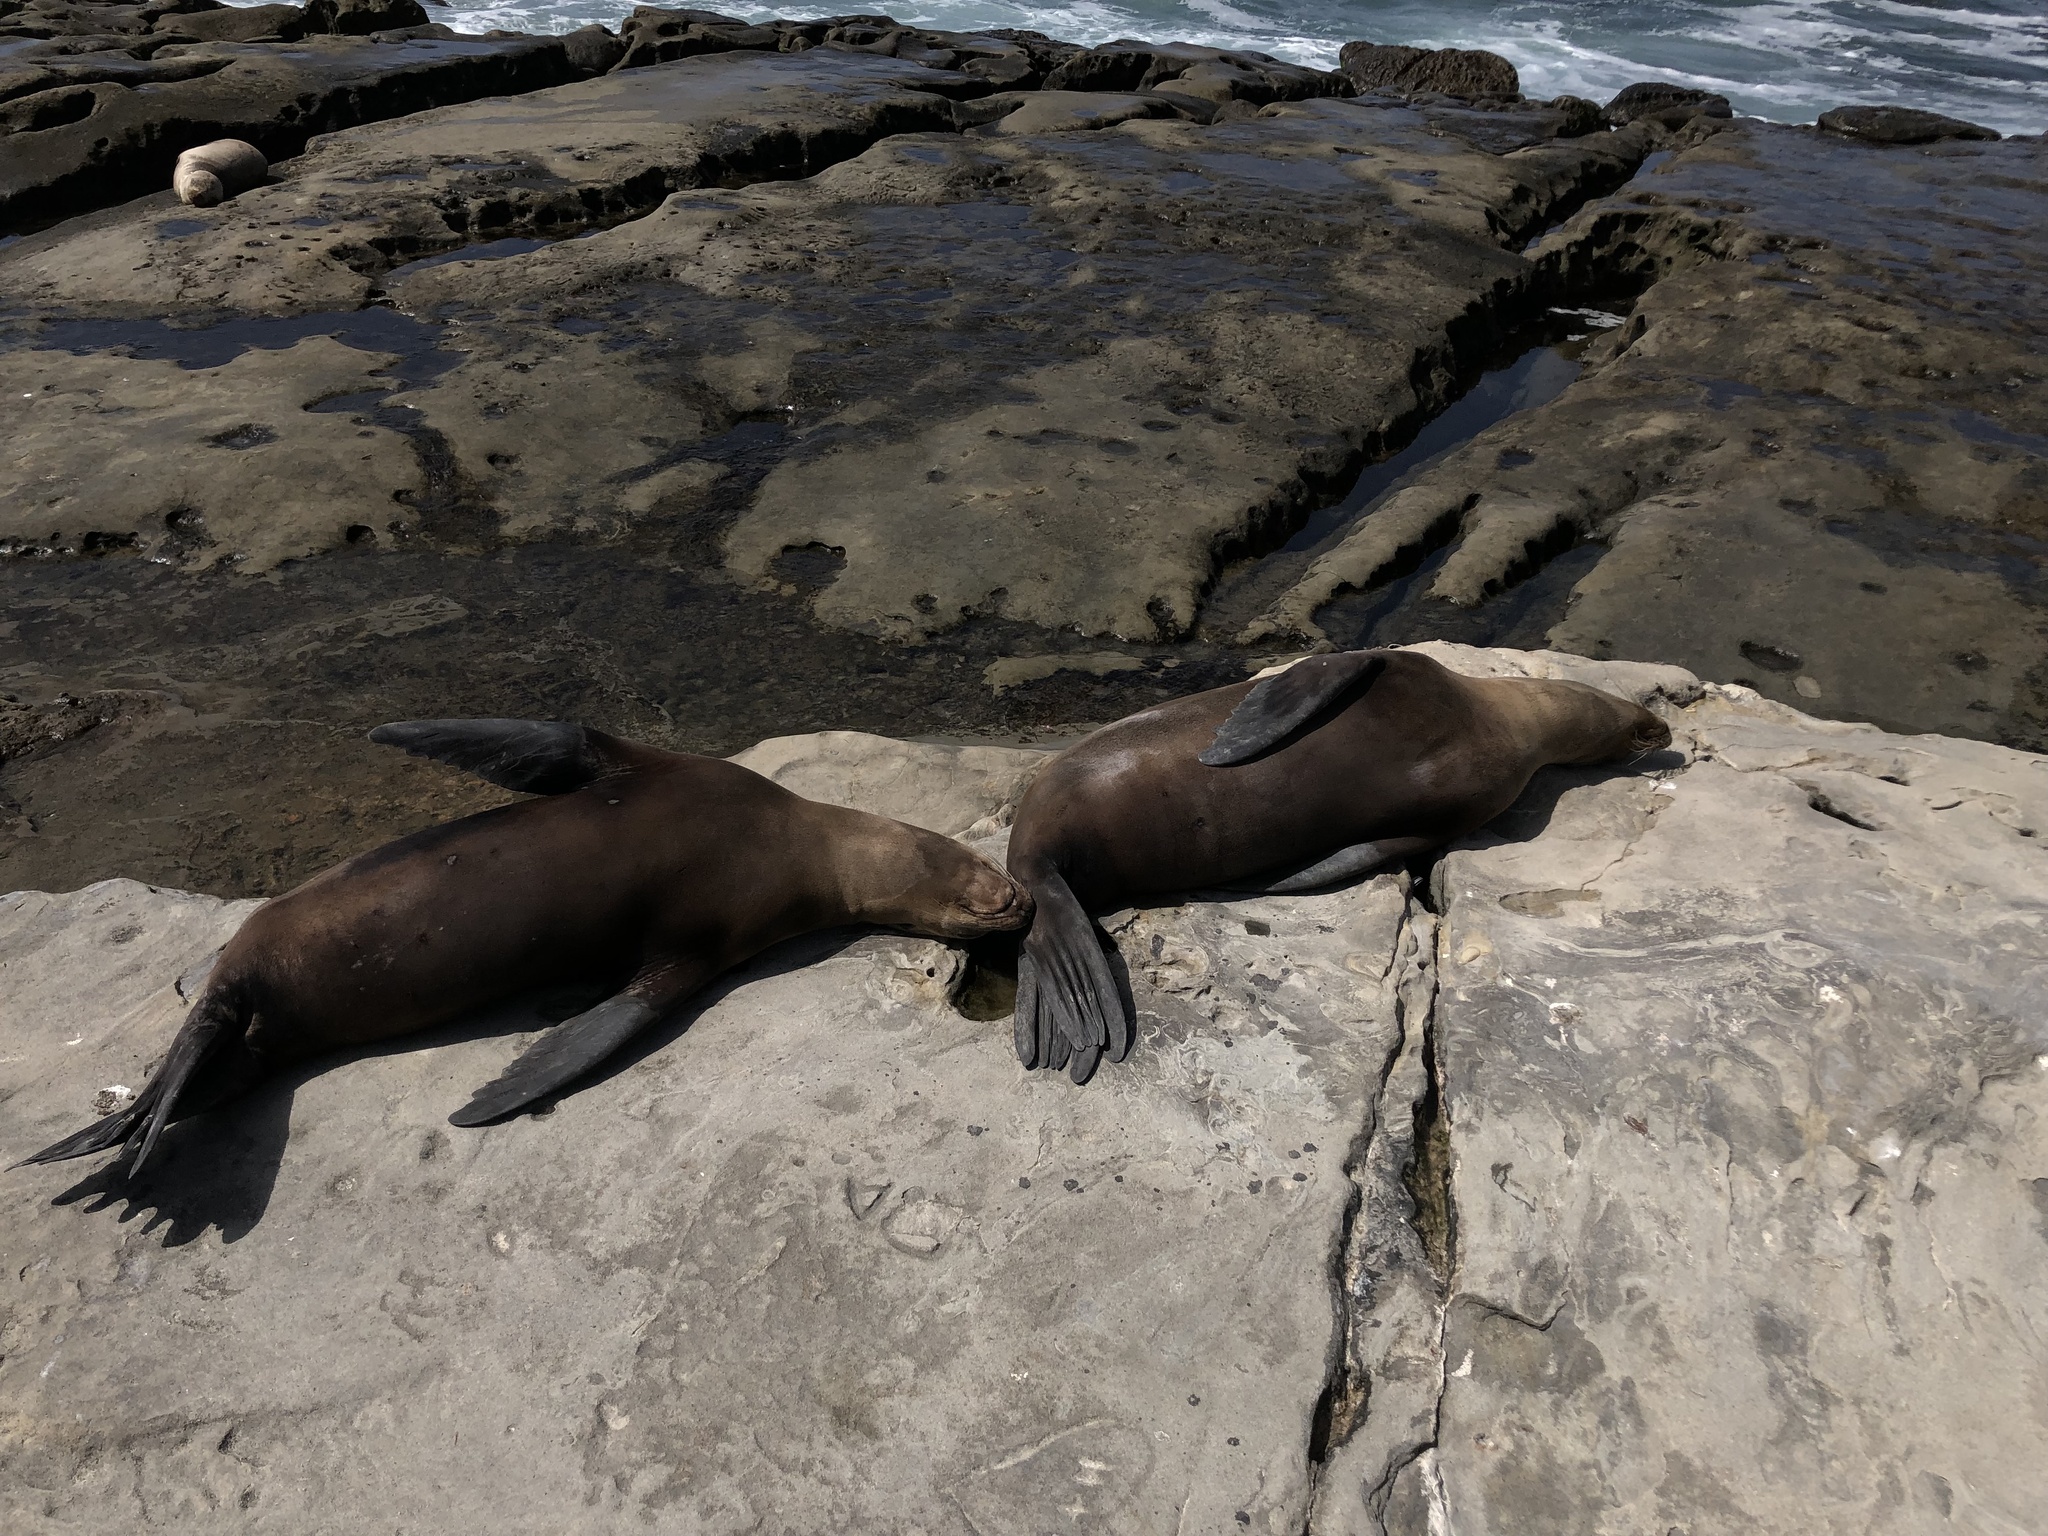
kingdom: Animalia
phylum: Chordata
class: Mammalia
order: Carnivora
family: Otariidae
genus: Zalophus
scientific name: Zalophus californianus
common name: California sea lion
